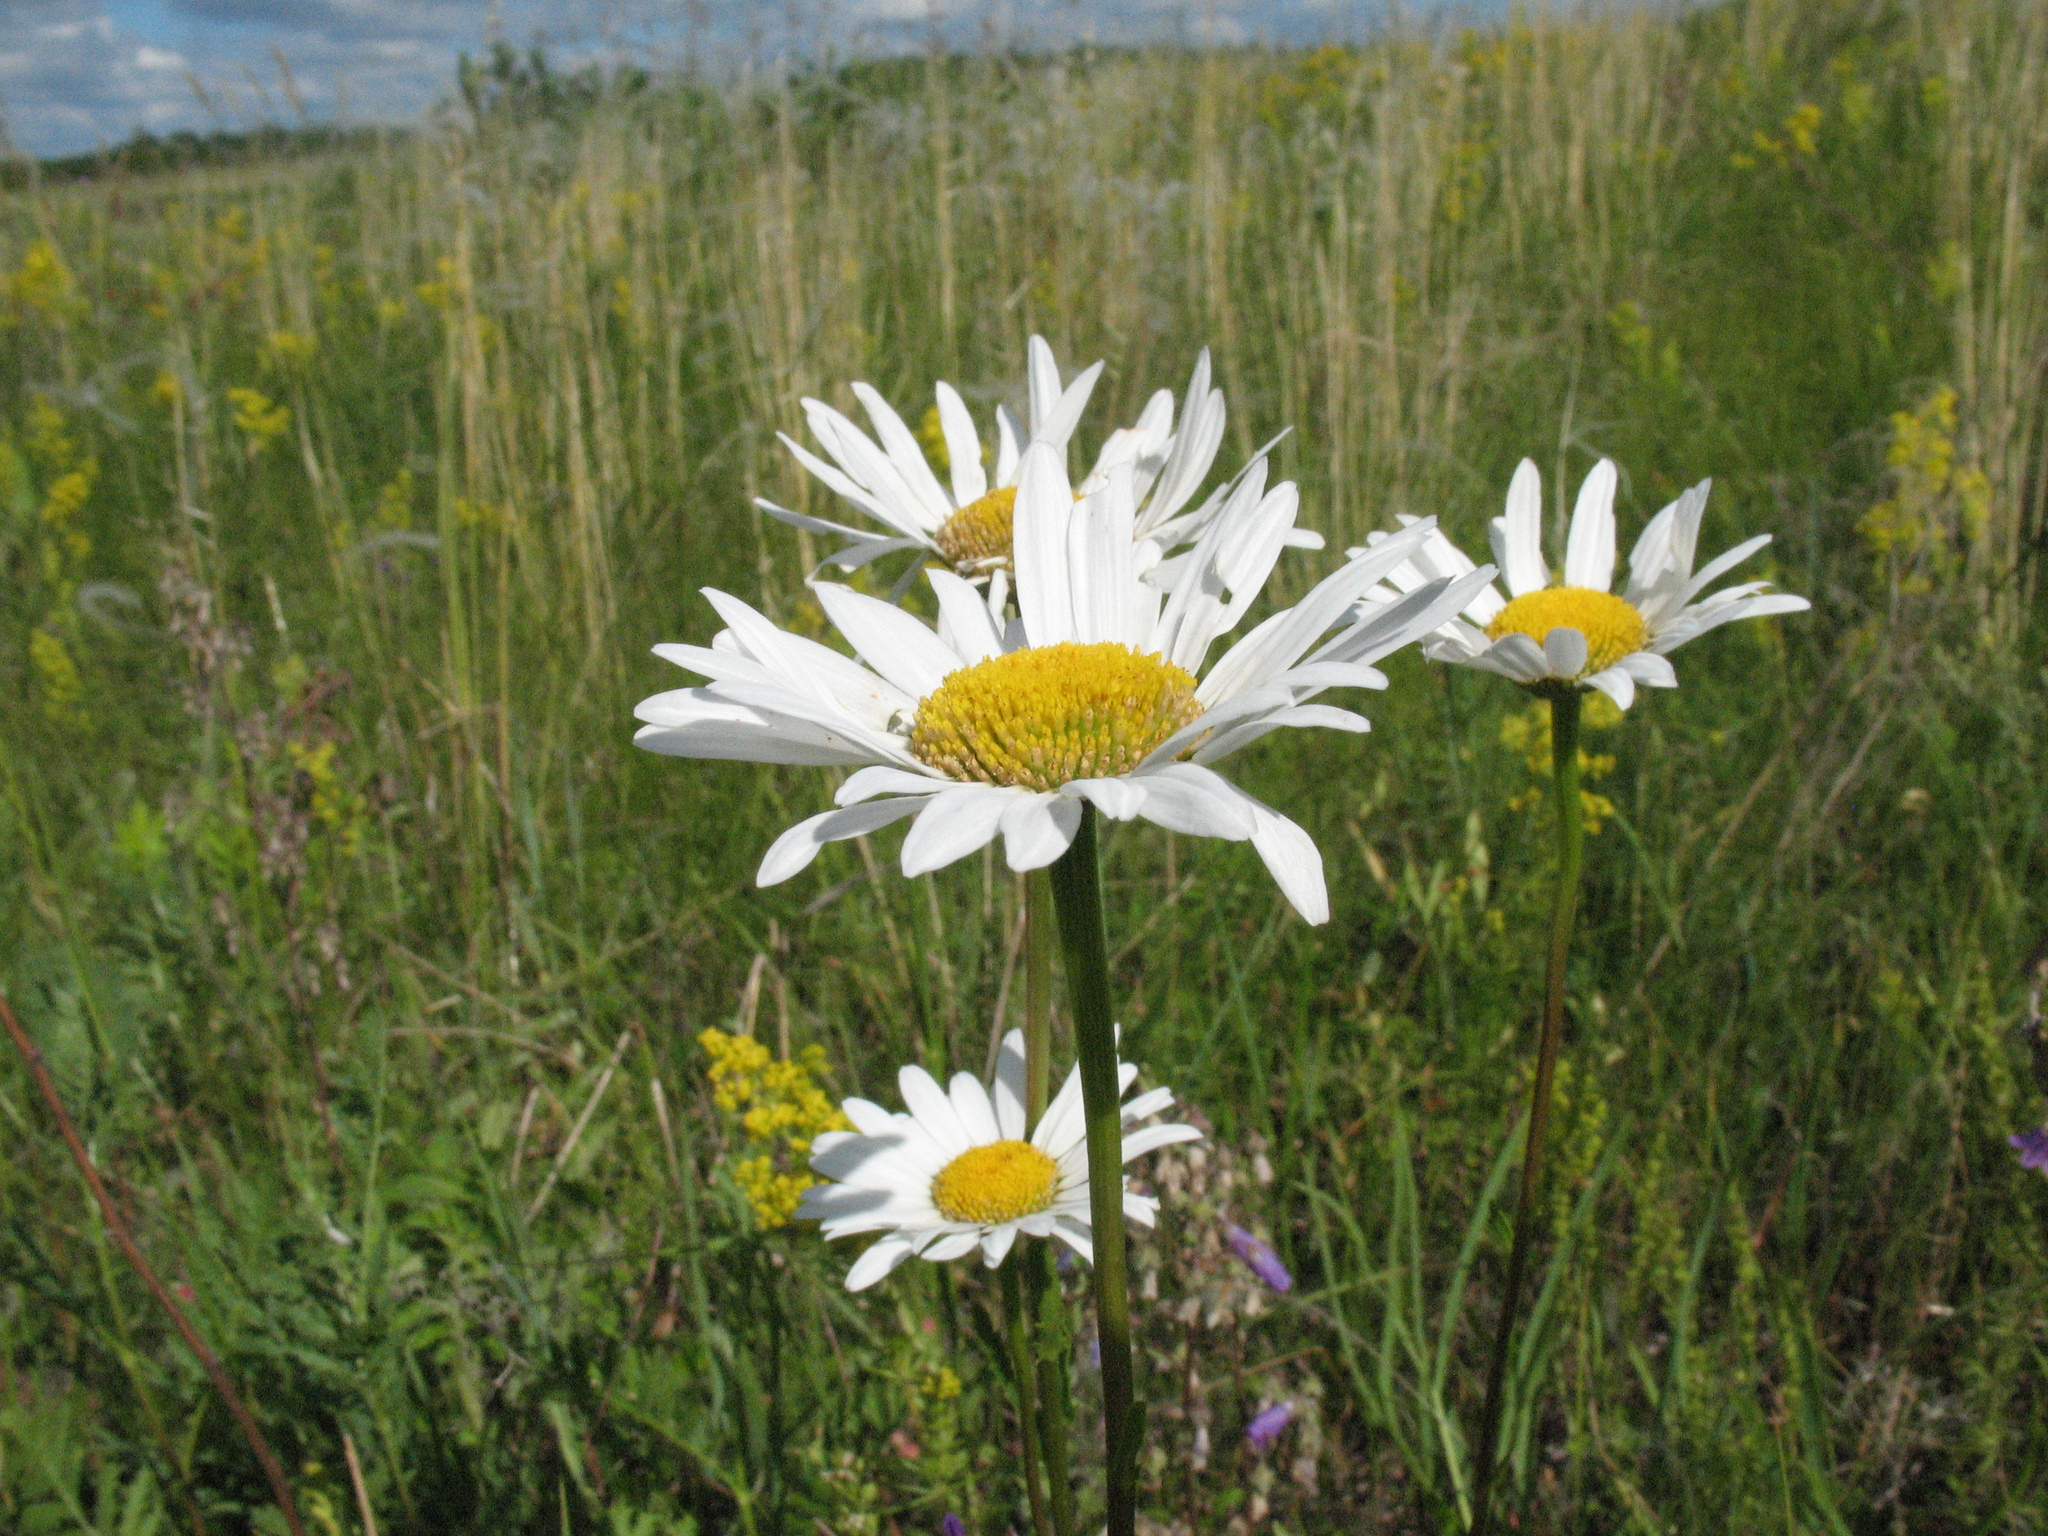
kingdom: Plantae
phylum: Tracheophyta
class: Magnoliopsida
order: Asterales
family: Asteraceae
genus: Leucanthemum
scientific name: Leucanthemum vulgare
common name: Oxeye daisy
